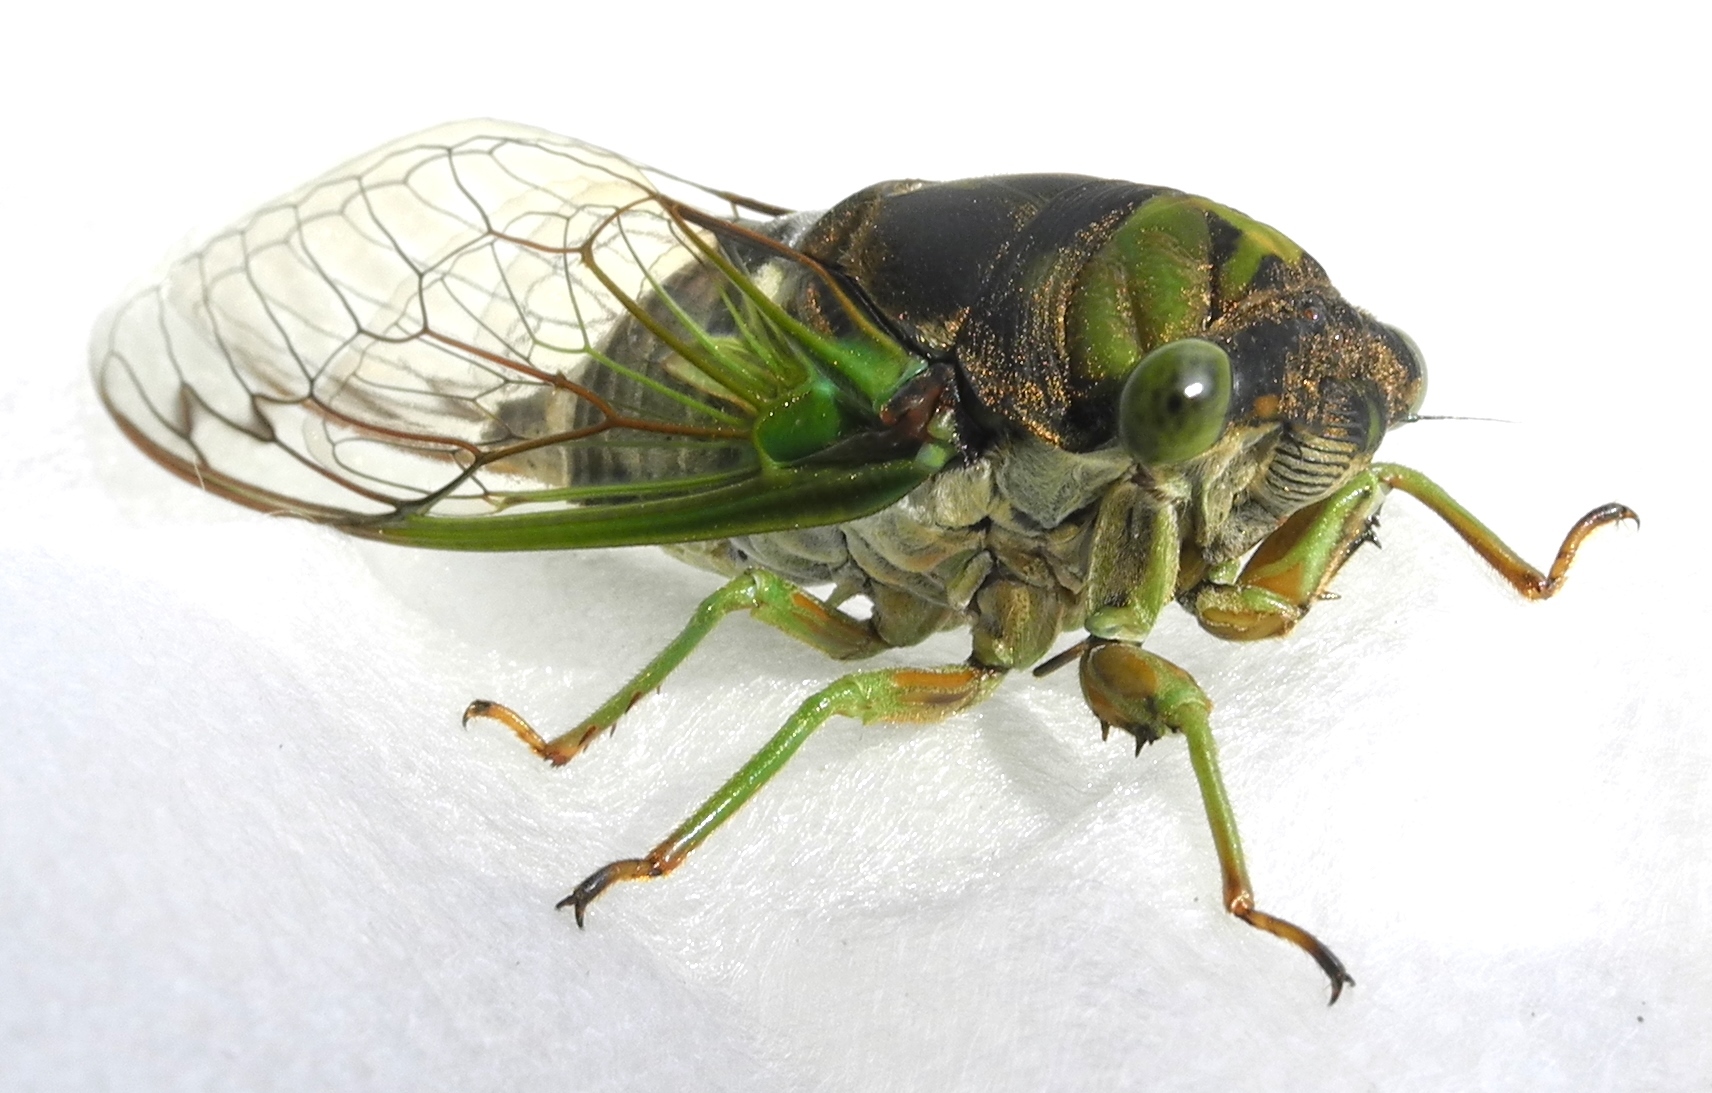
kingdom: Animalia
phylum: Arthropoda
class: Insecta
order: Hemiptera
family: Cicadidae
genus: Neotibicen
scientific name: Neotibicen tibicen
